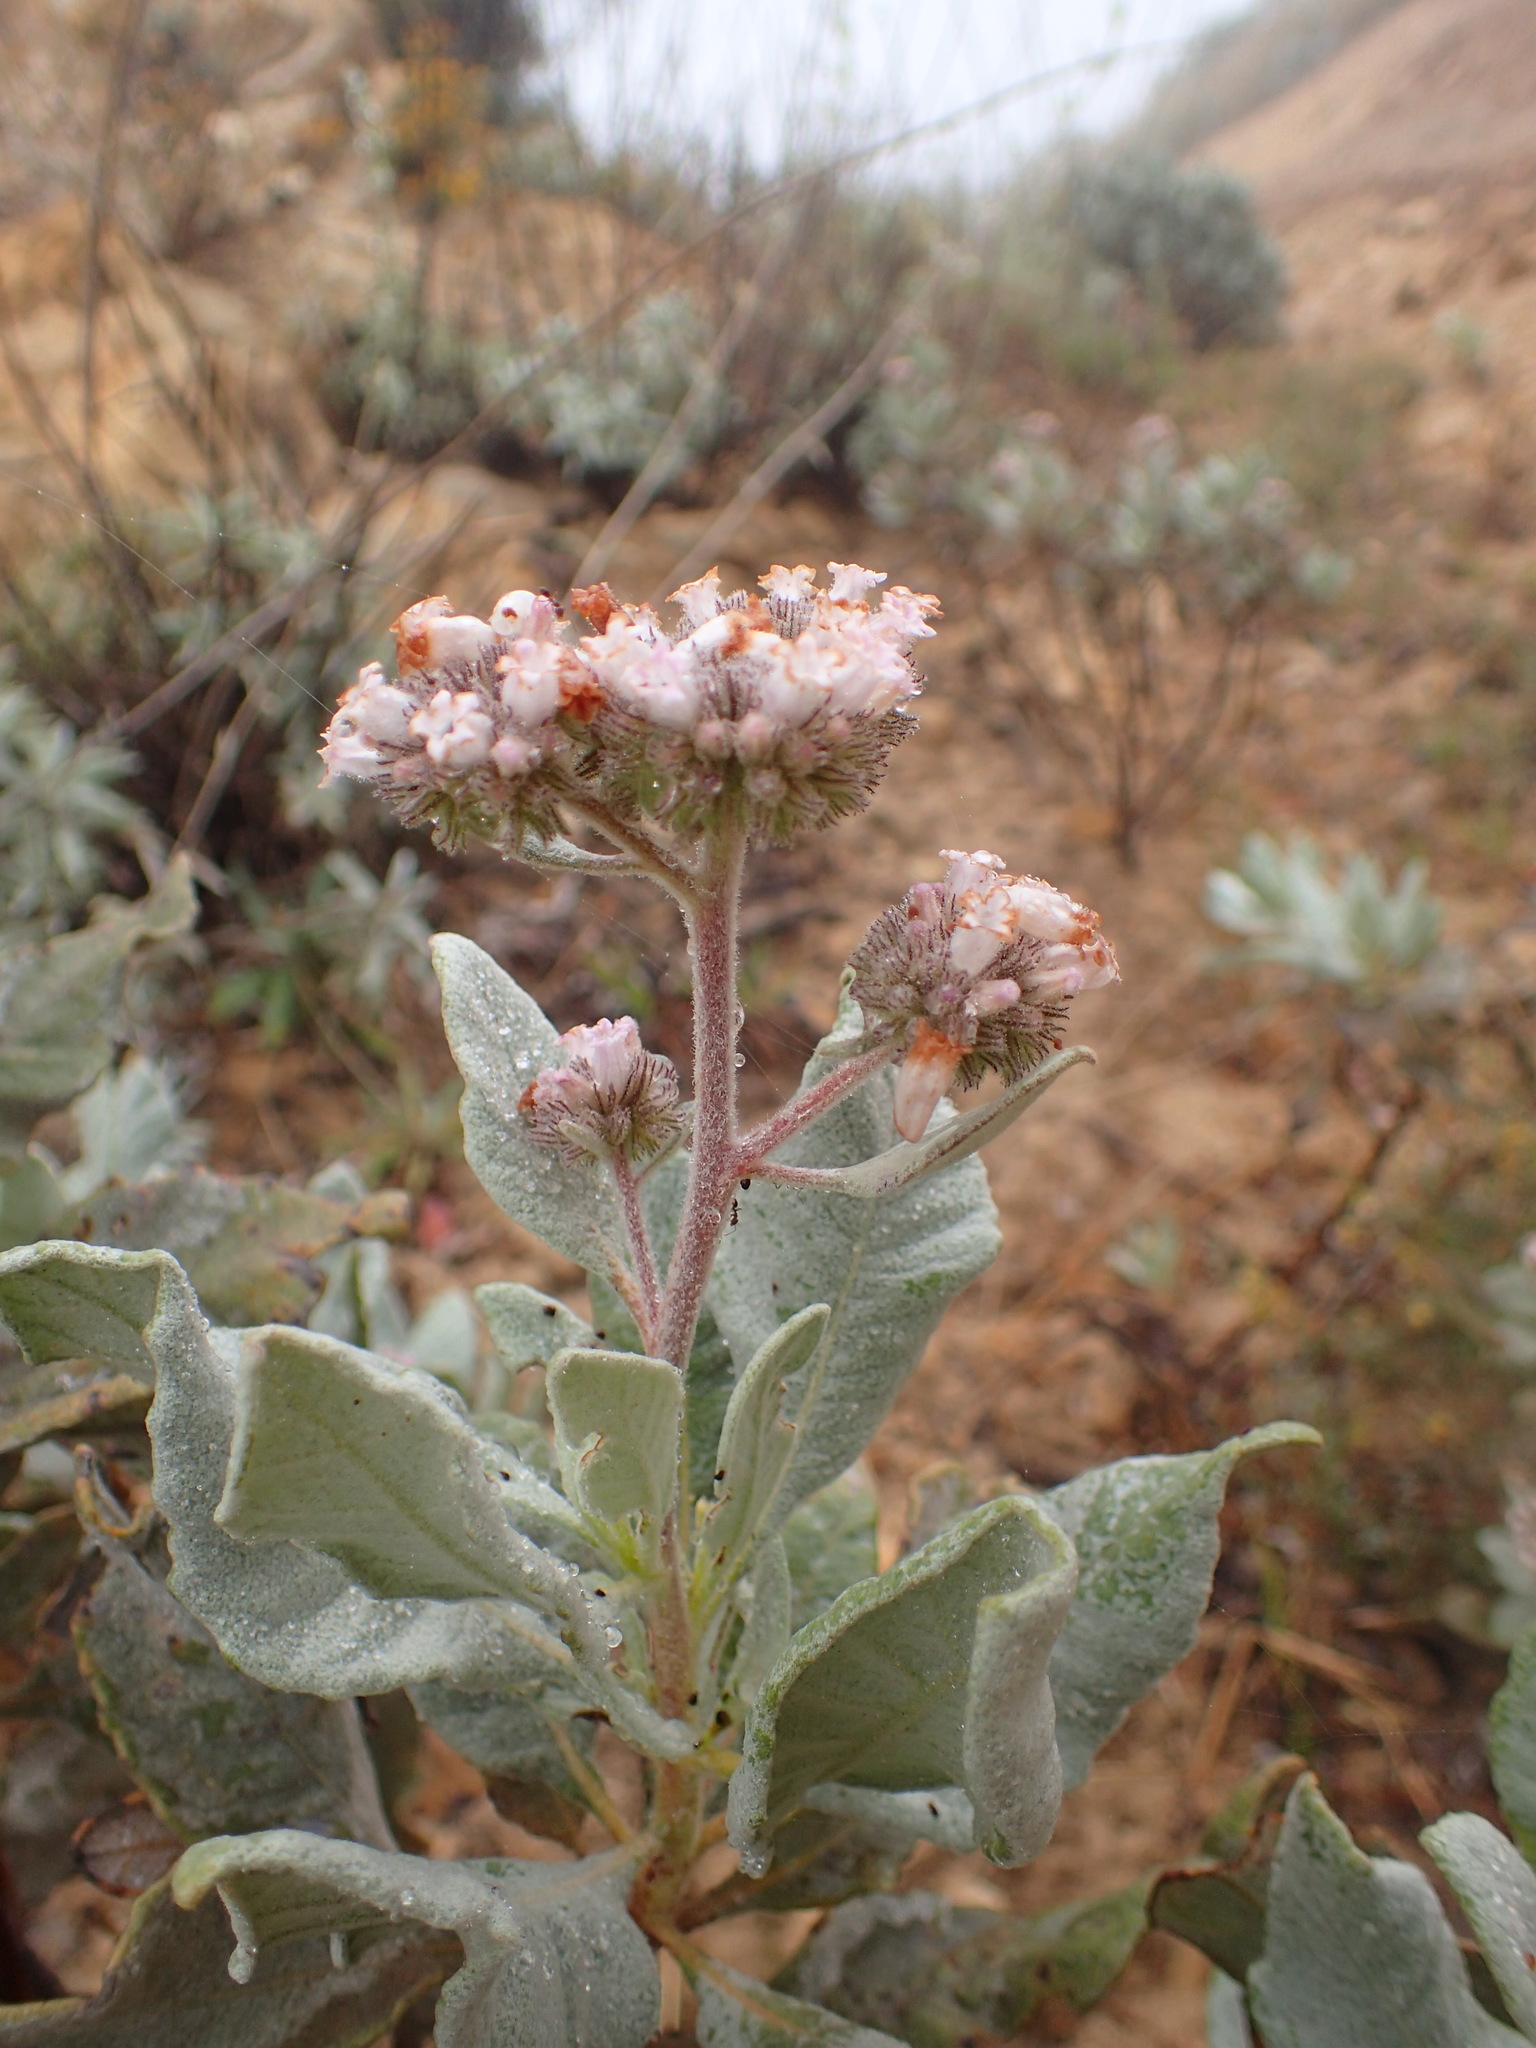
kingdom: Plantae
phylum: Tracheophyta
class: Magnoliopsida
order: Boraginales
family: Namaceae
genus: Eriodictyon
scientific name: Eriodictyon traskiae
